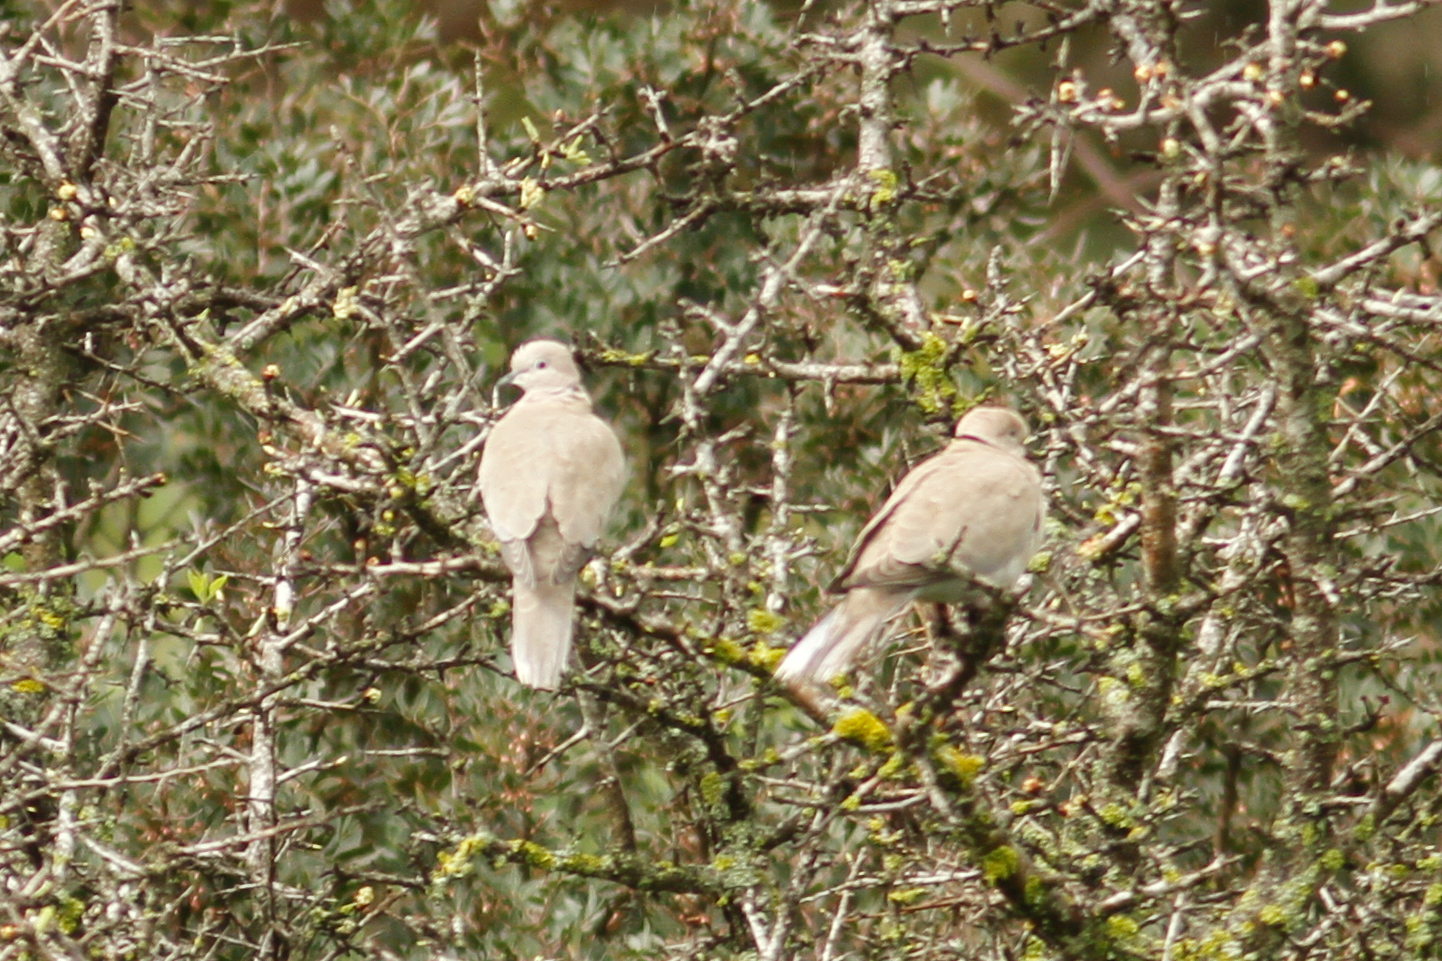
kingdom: Animalia
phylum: Chordata
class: Aves
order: Columbiformes
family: Columbidae
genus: Streptopelia
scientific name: Streptopelia decaocto
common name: Eurasian collared dove
